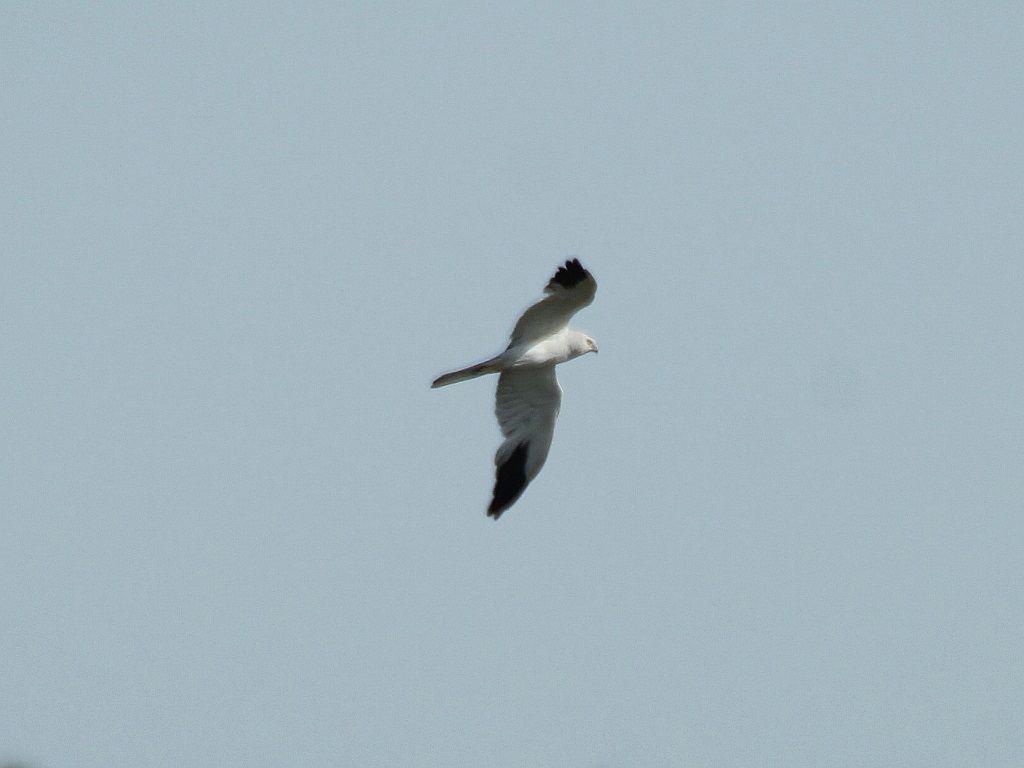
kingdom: Animalia
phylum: Chordata
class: Aves
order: Accipitriformes
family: Accipitridae
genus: Circus
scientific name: Circus macrourus
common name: Pallid harrier
